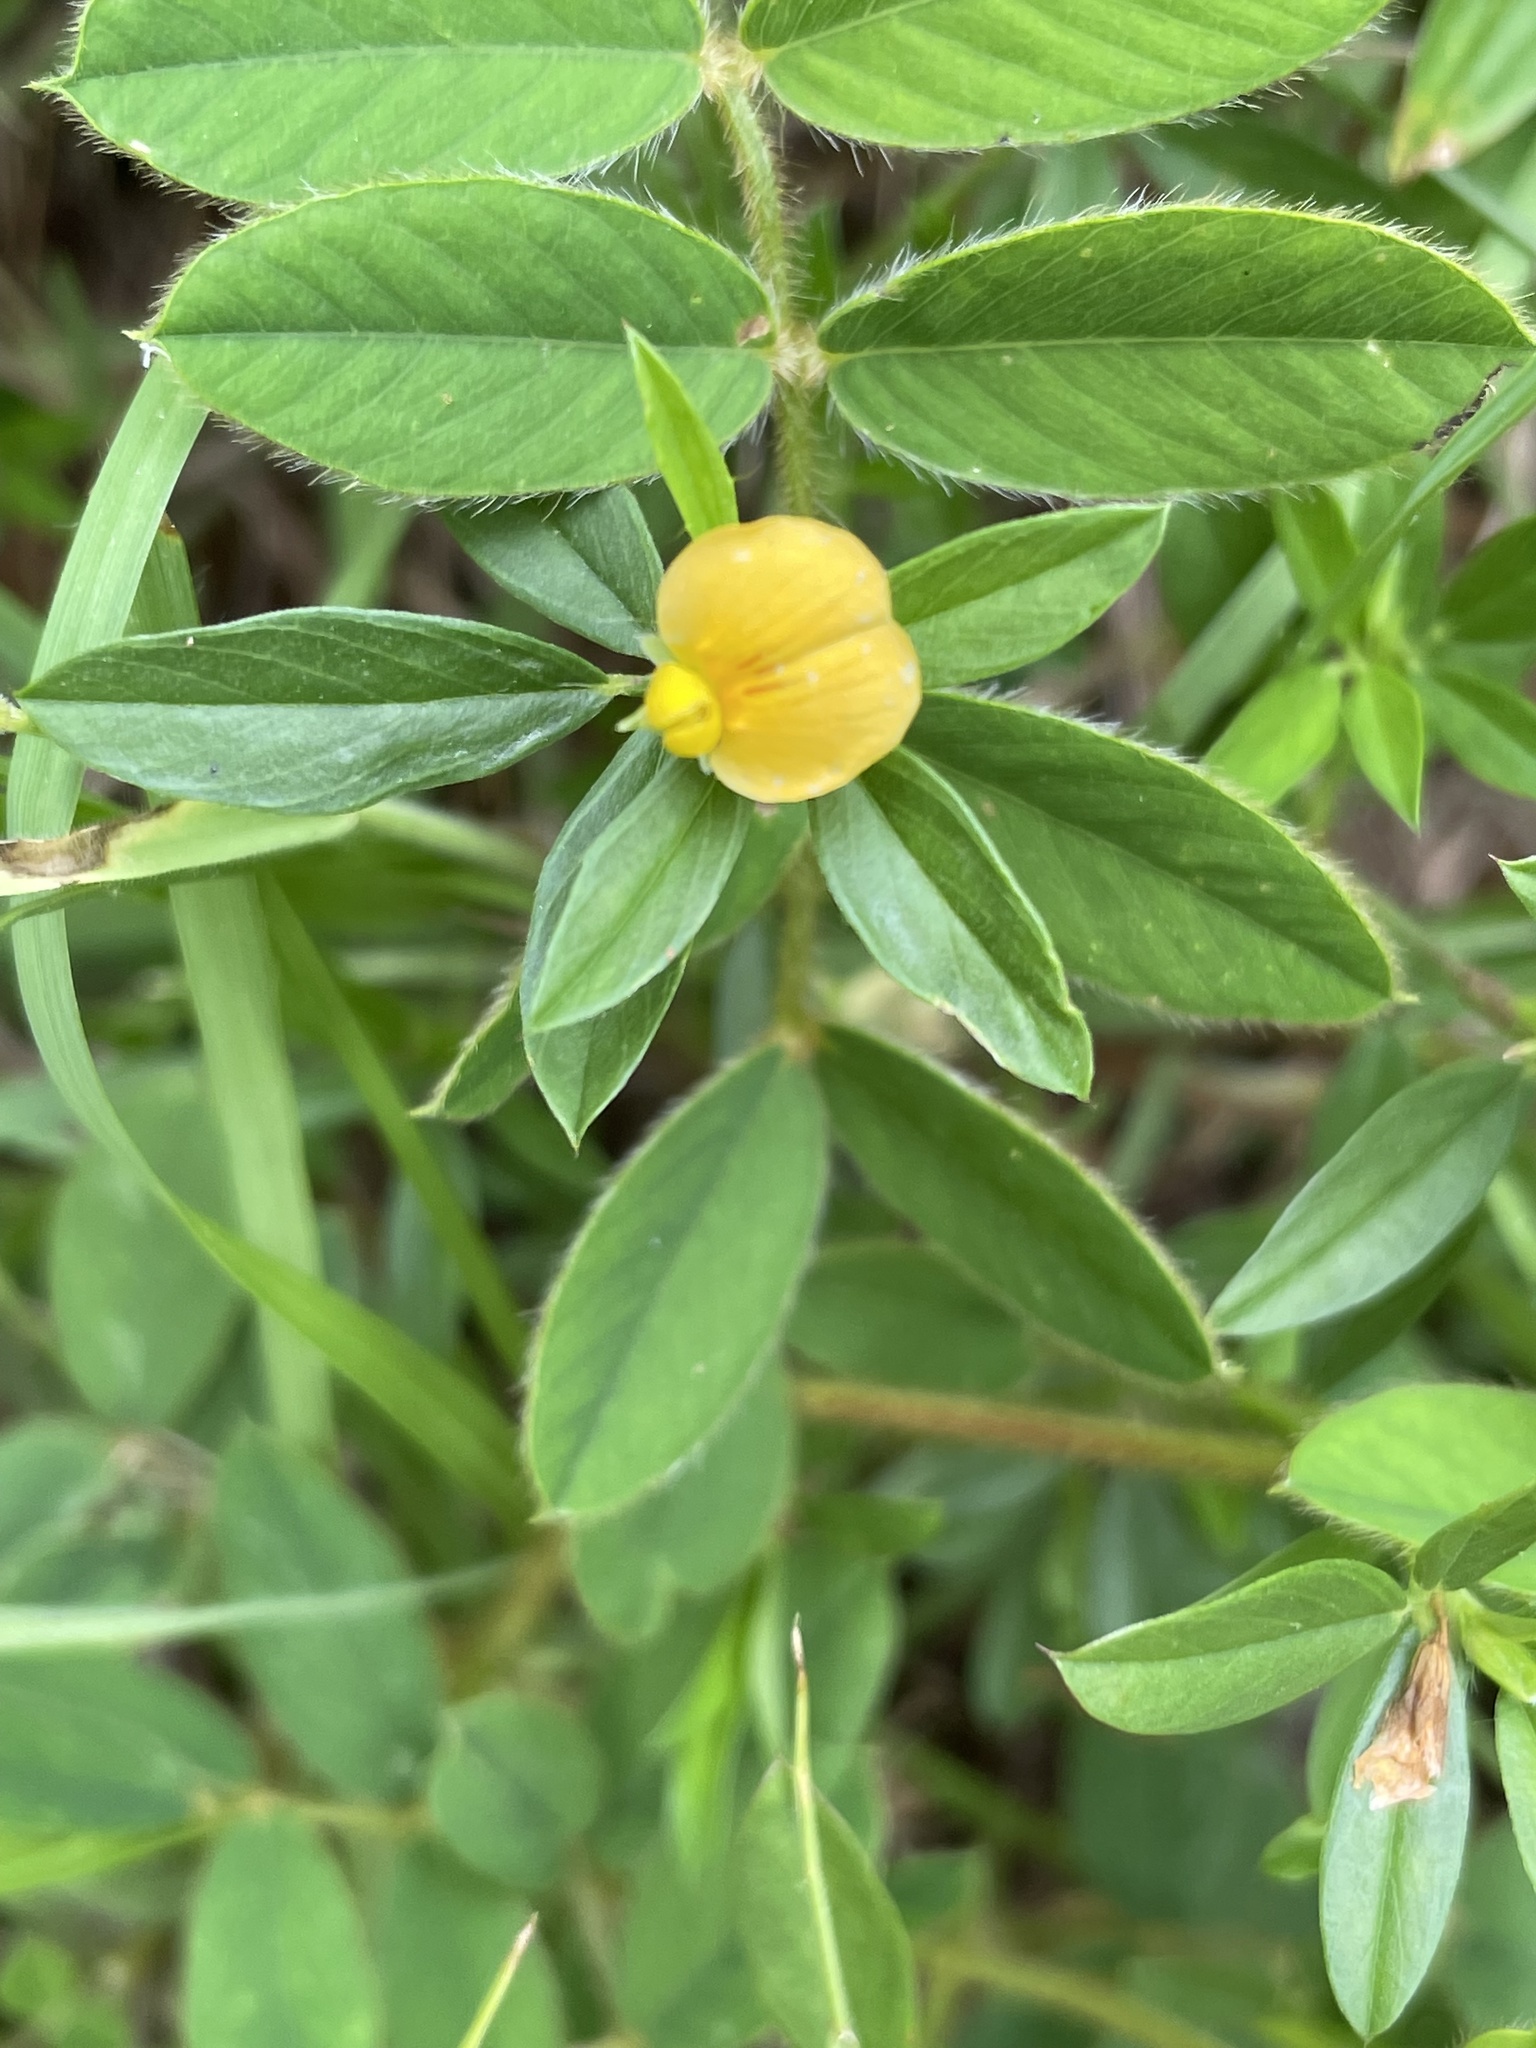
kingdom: Plantae
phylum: Tracheophyta
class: Magnoliopsida
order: Fabales
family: Fabaceae
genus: Stylosanthes
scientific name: Stylosanthes biflora
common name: Two-flower pencil-flower
